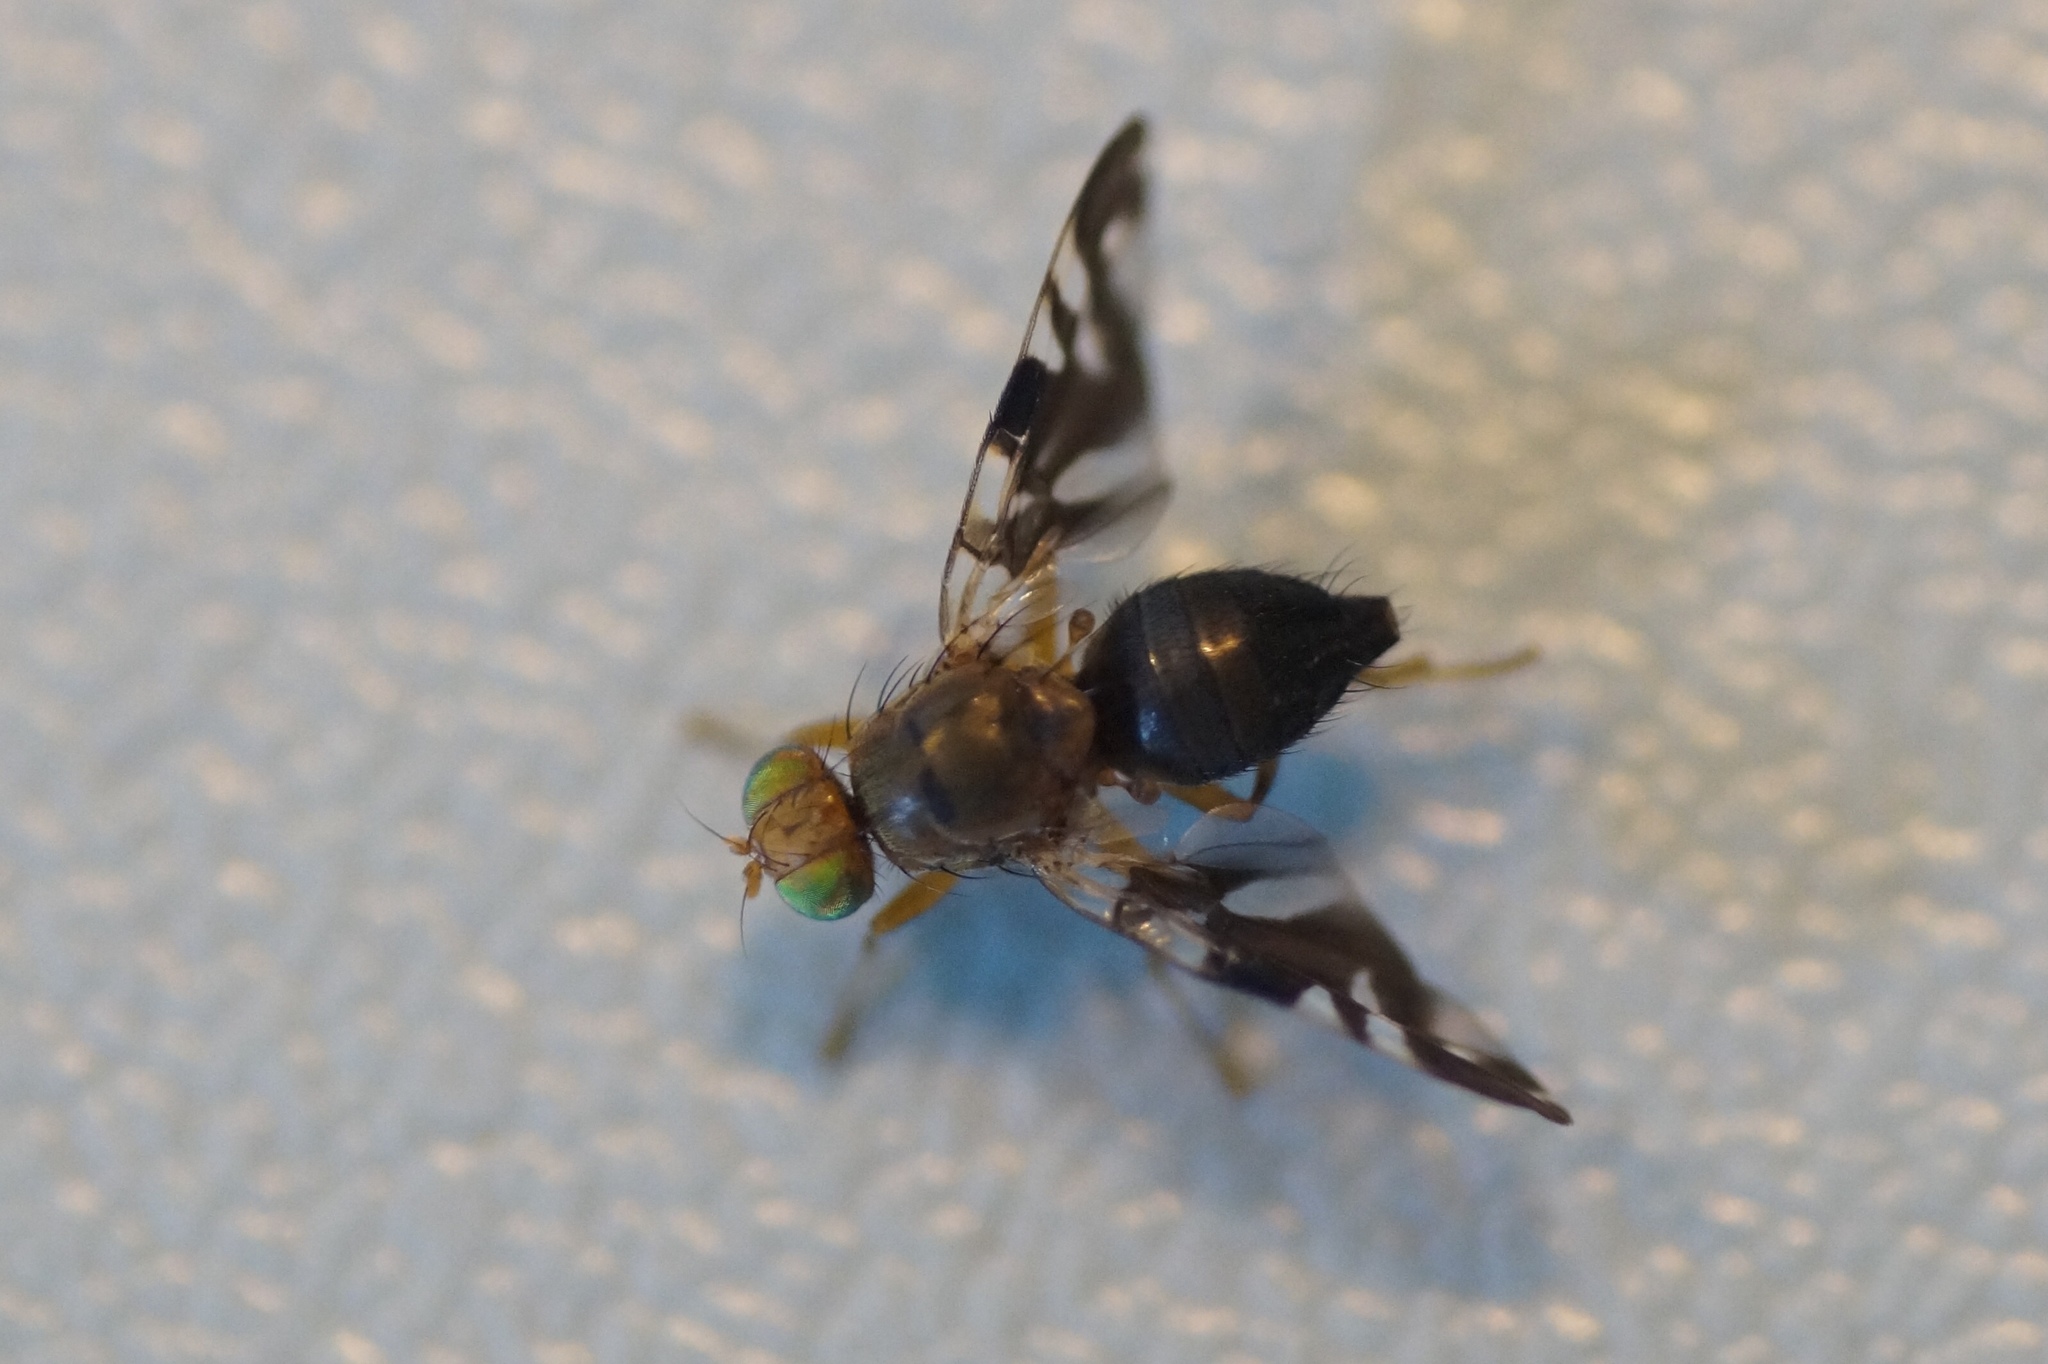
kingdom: Animalia
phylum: Arthropoda
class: Insecta
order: Diptera
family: Tephritidae
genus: Philophylla
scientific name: Philophylla caesio
